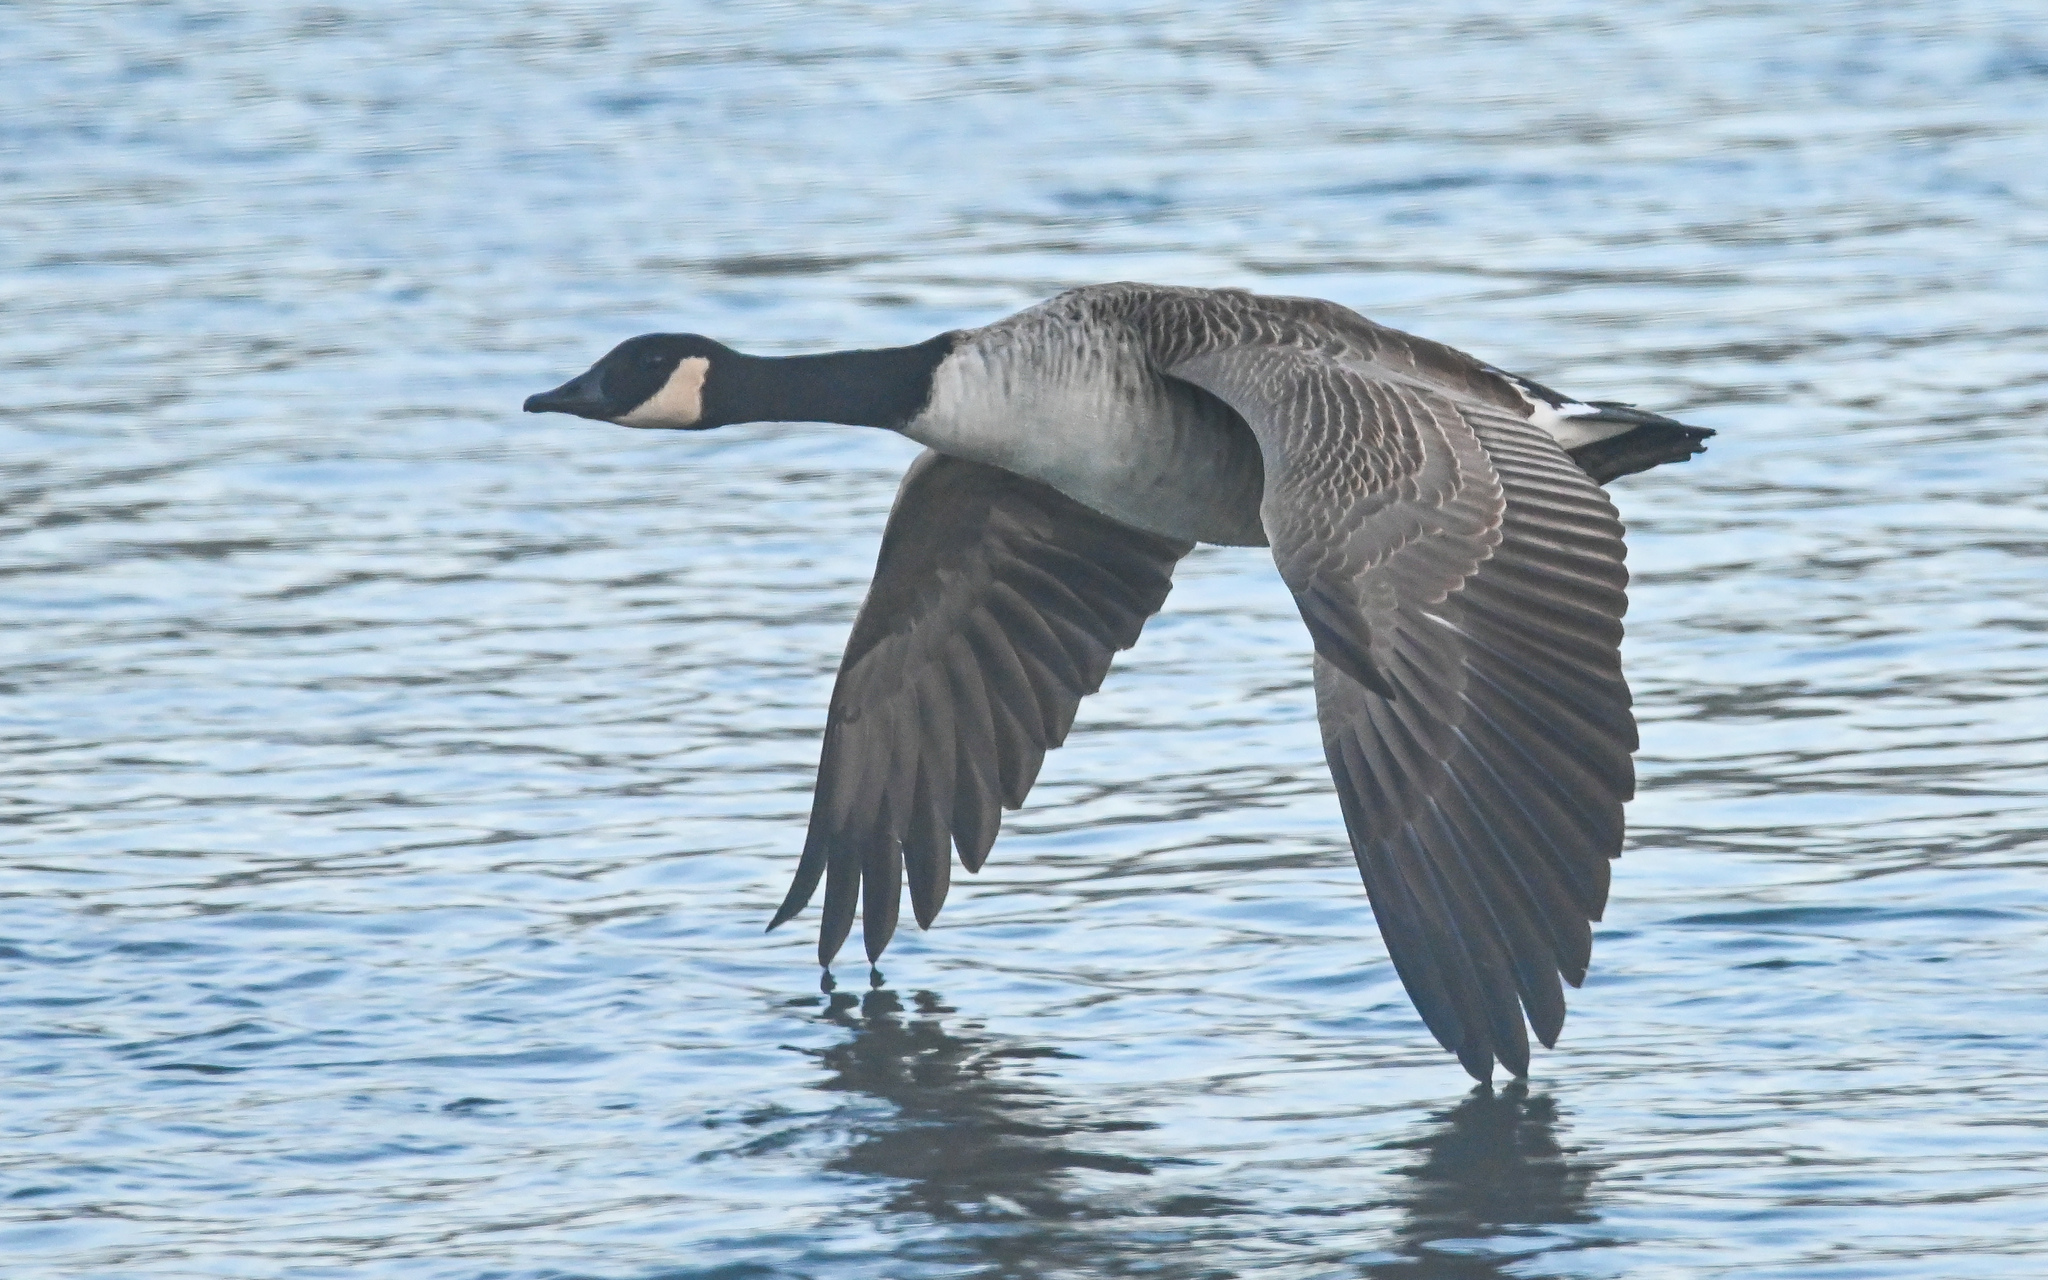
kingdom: Animalia
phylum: Chordata
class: Aves
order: Anseriformes
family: Anatidae
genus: Branta
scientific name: Branta canadensis
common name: Canada goose
